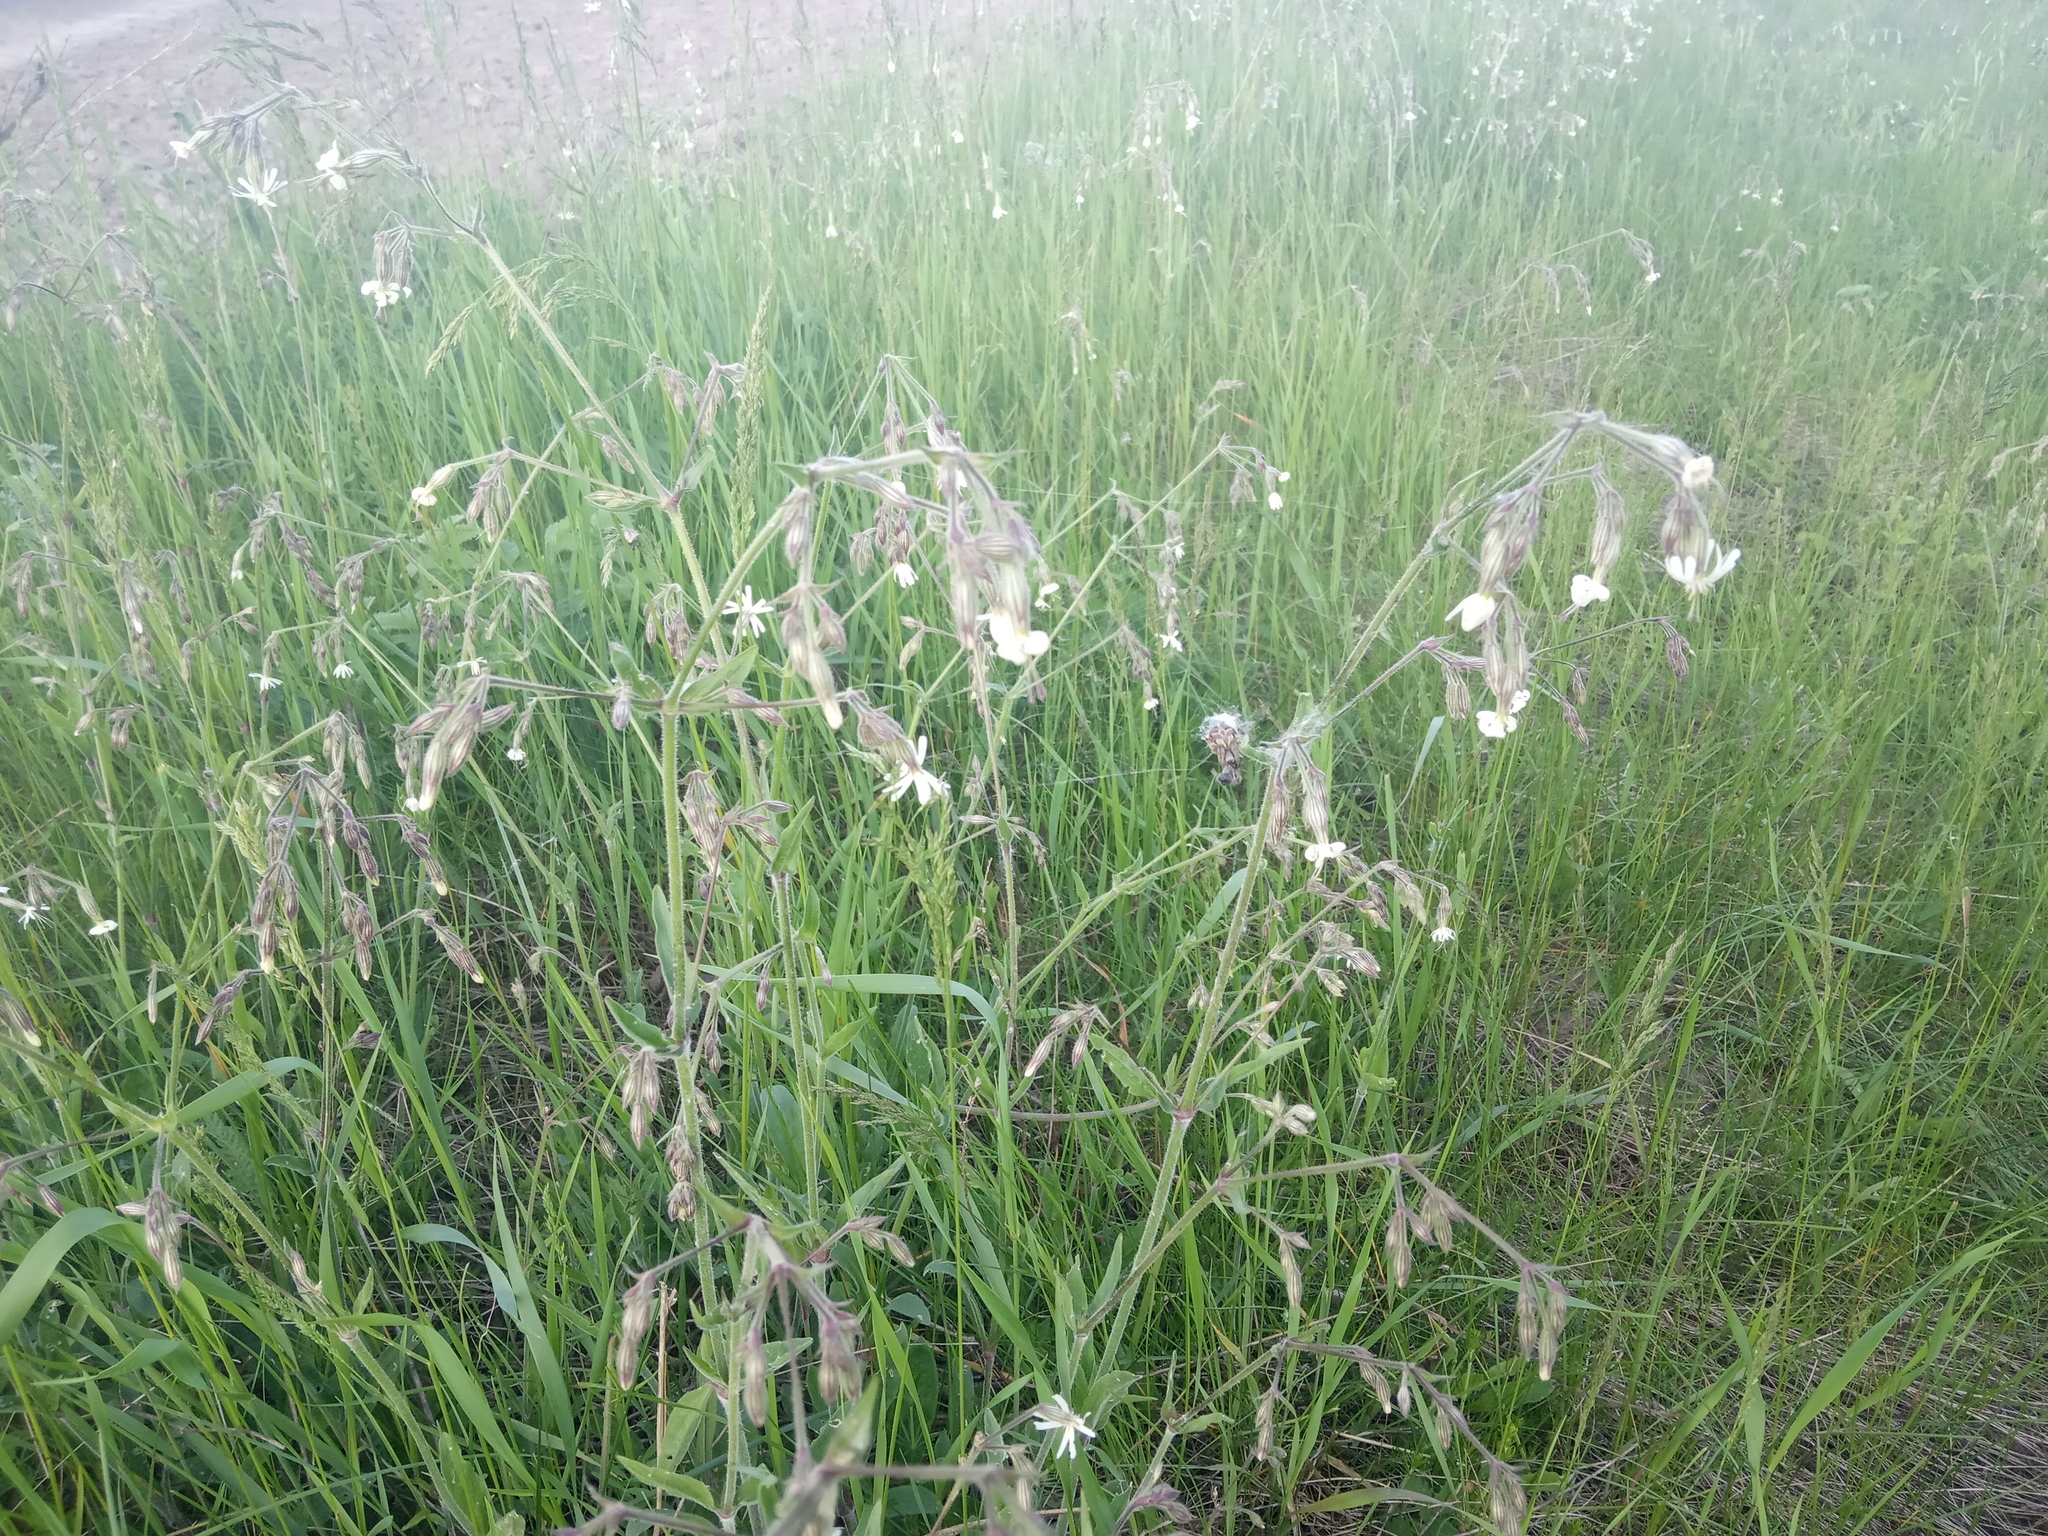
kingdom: Plantae
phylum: Tracheophyta
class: Magnoliopsida
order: Caryophyllales
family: Caryophyllaceae
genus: Silene
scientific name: Silene nutans
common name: Nottingham catchfly
